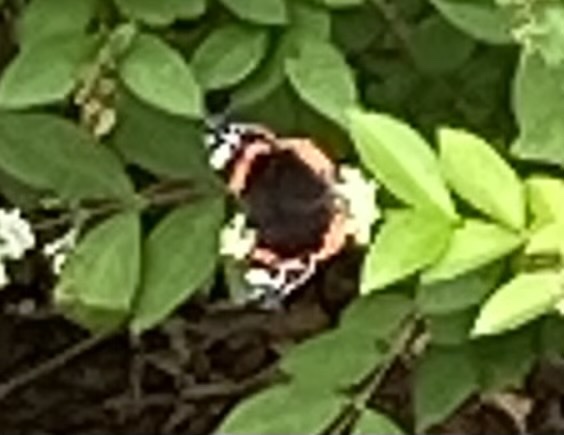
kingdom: Animalia
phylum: Arthropoda
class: Insecta
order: Lepidoptera
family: Nymphalidae
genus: Vanessa
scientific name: Vanessa atalanta
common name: Red admiral
